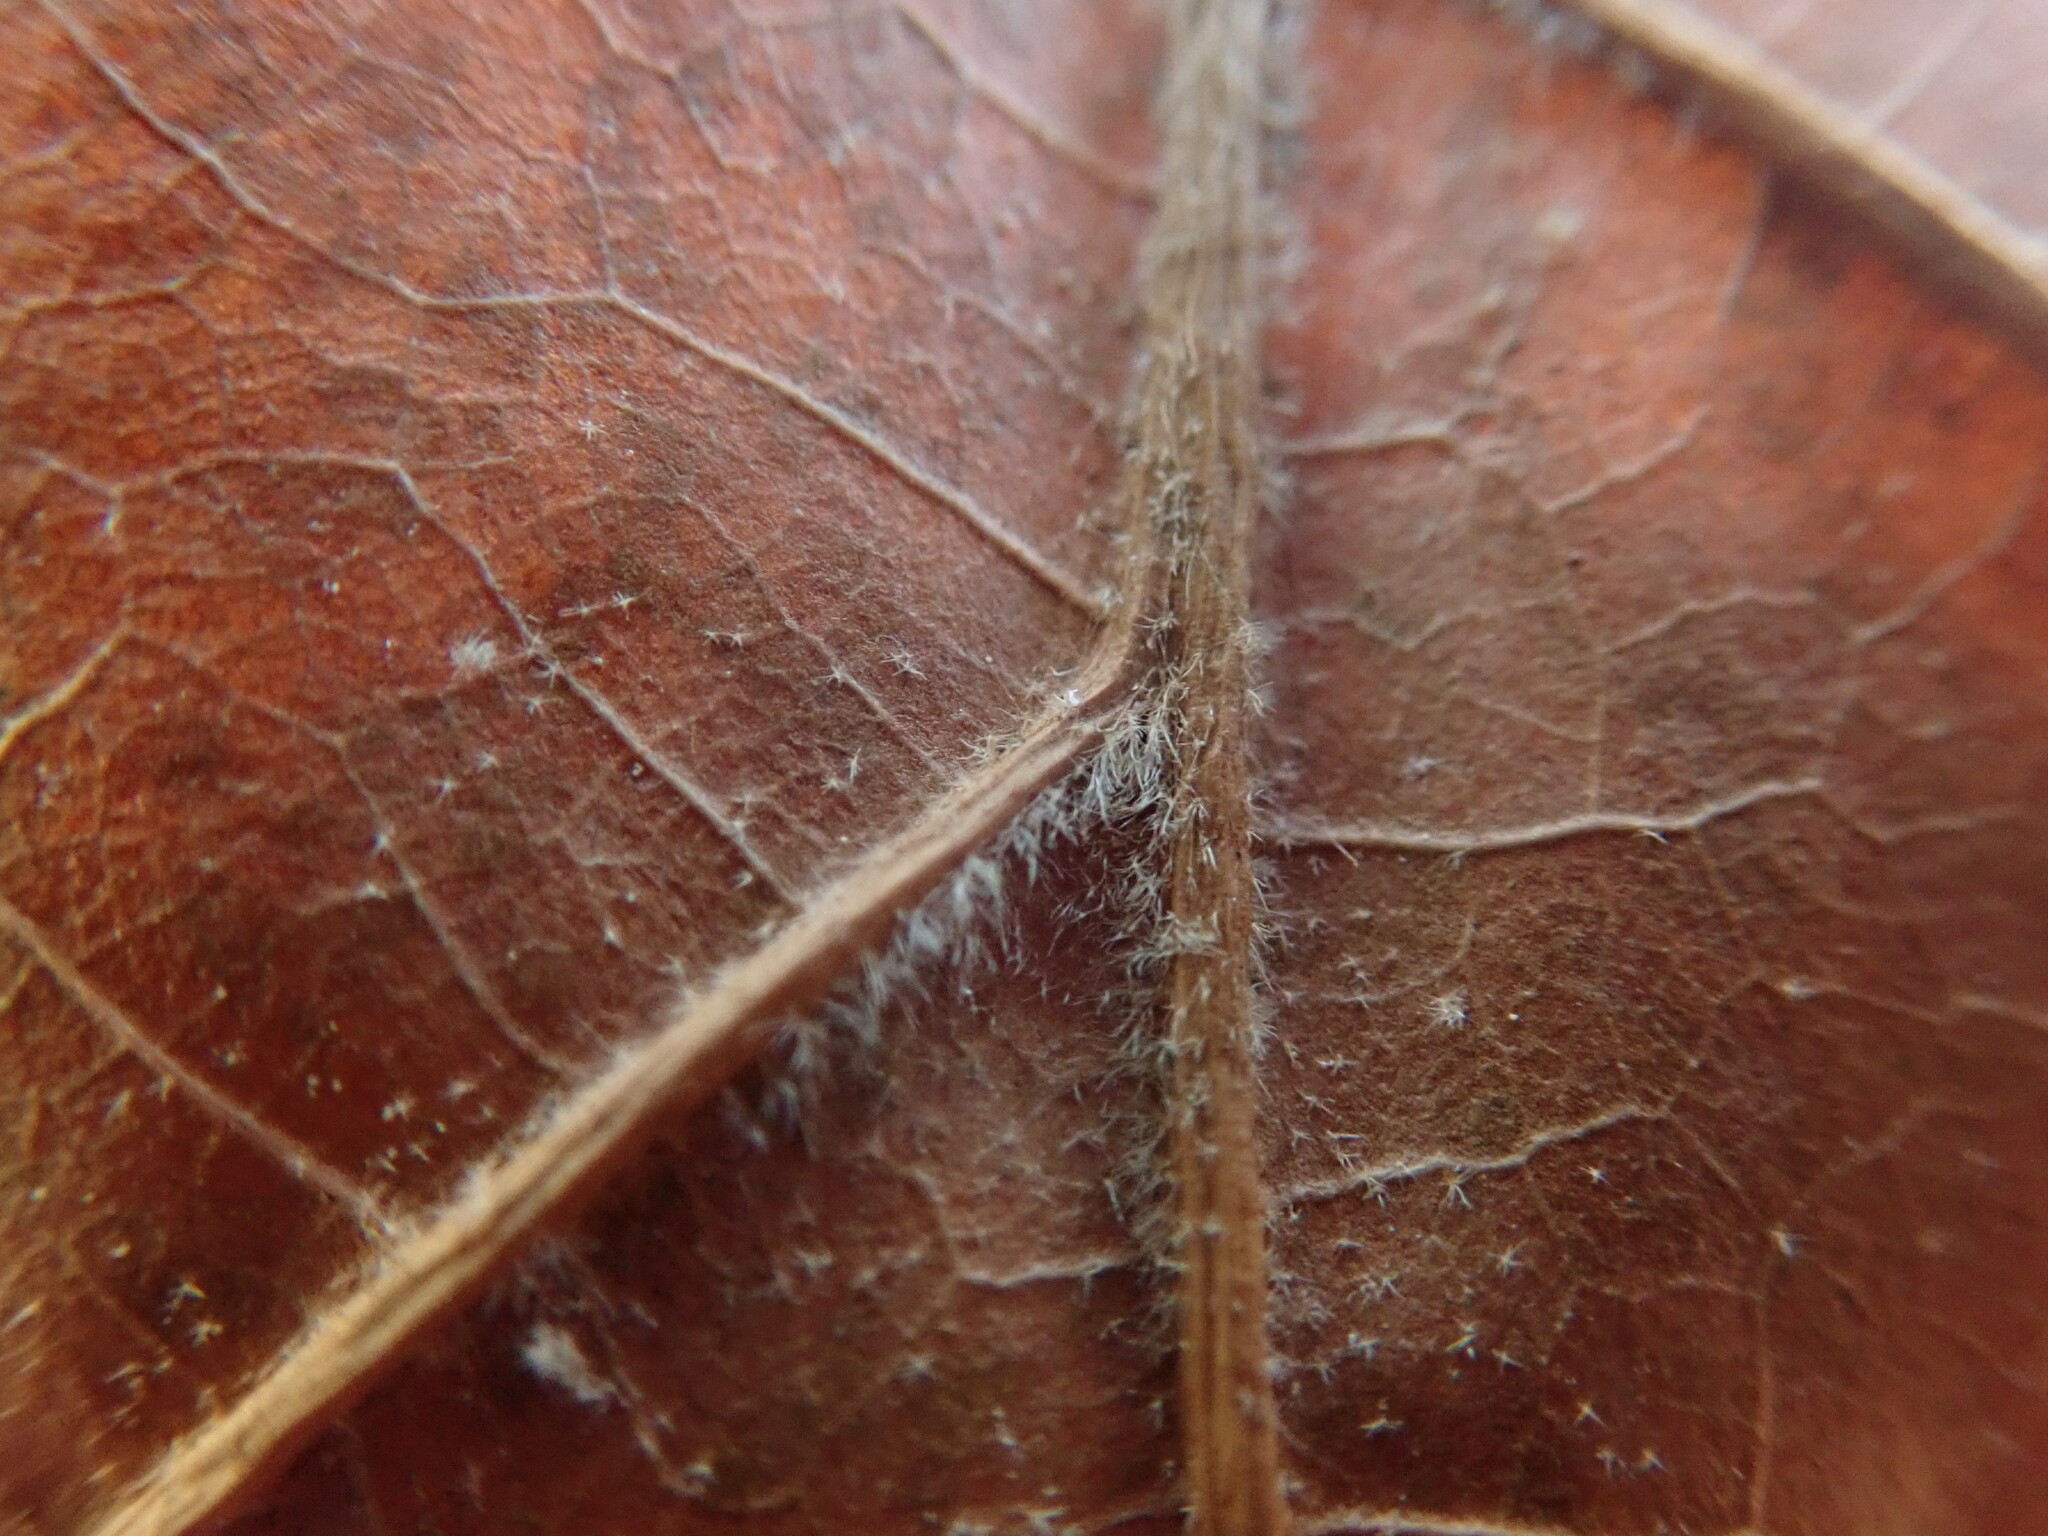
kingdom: Plantae
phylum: Tracheophyta
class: Magnoliopsida
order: Fagales
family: Fagaceae
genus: Quercus
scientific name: Quercus velutina
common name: Black oak
